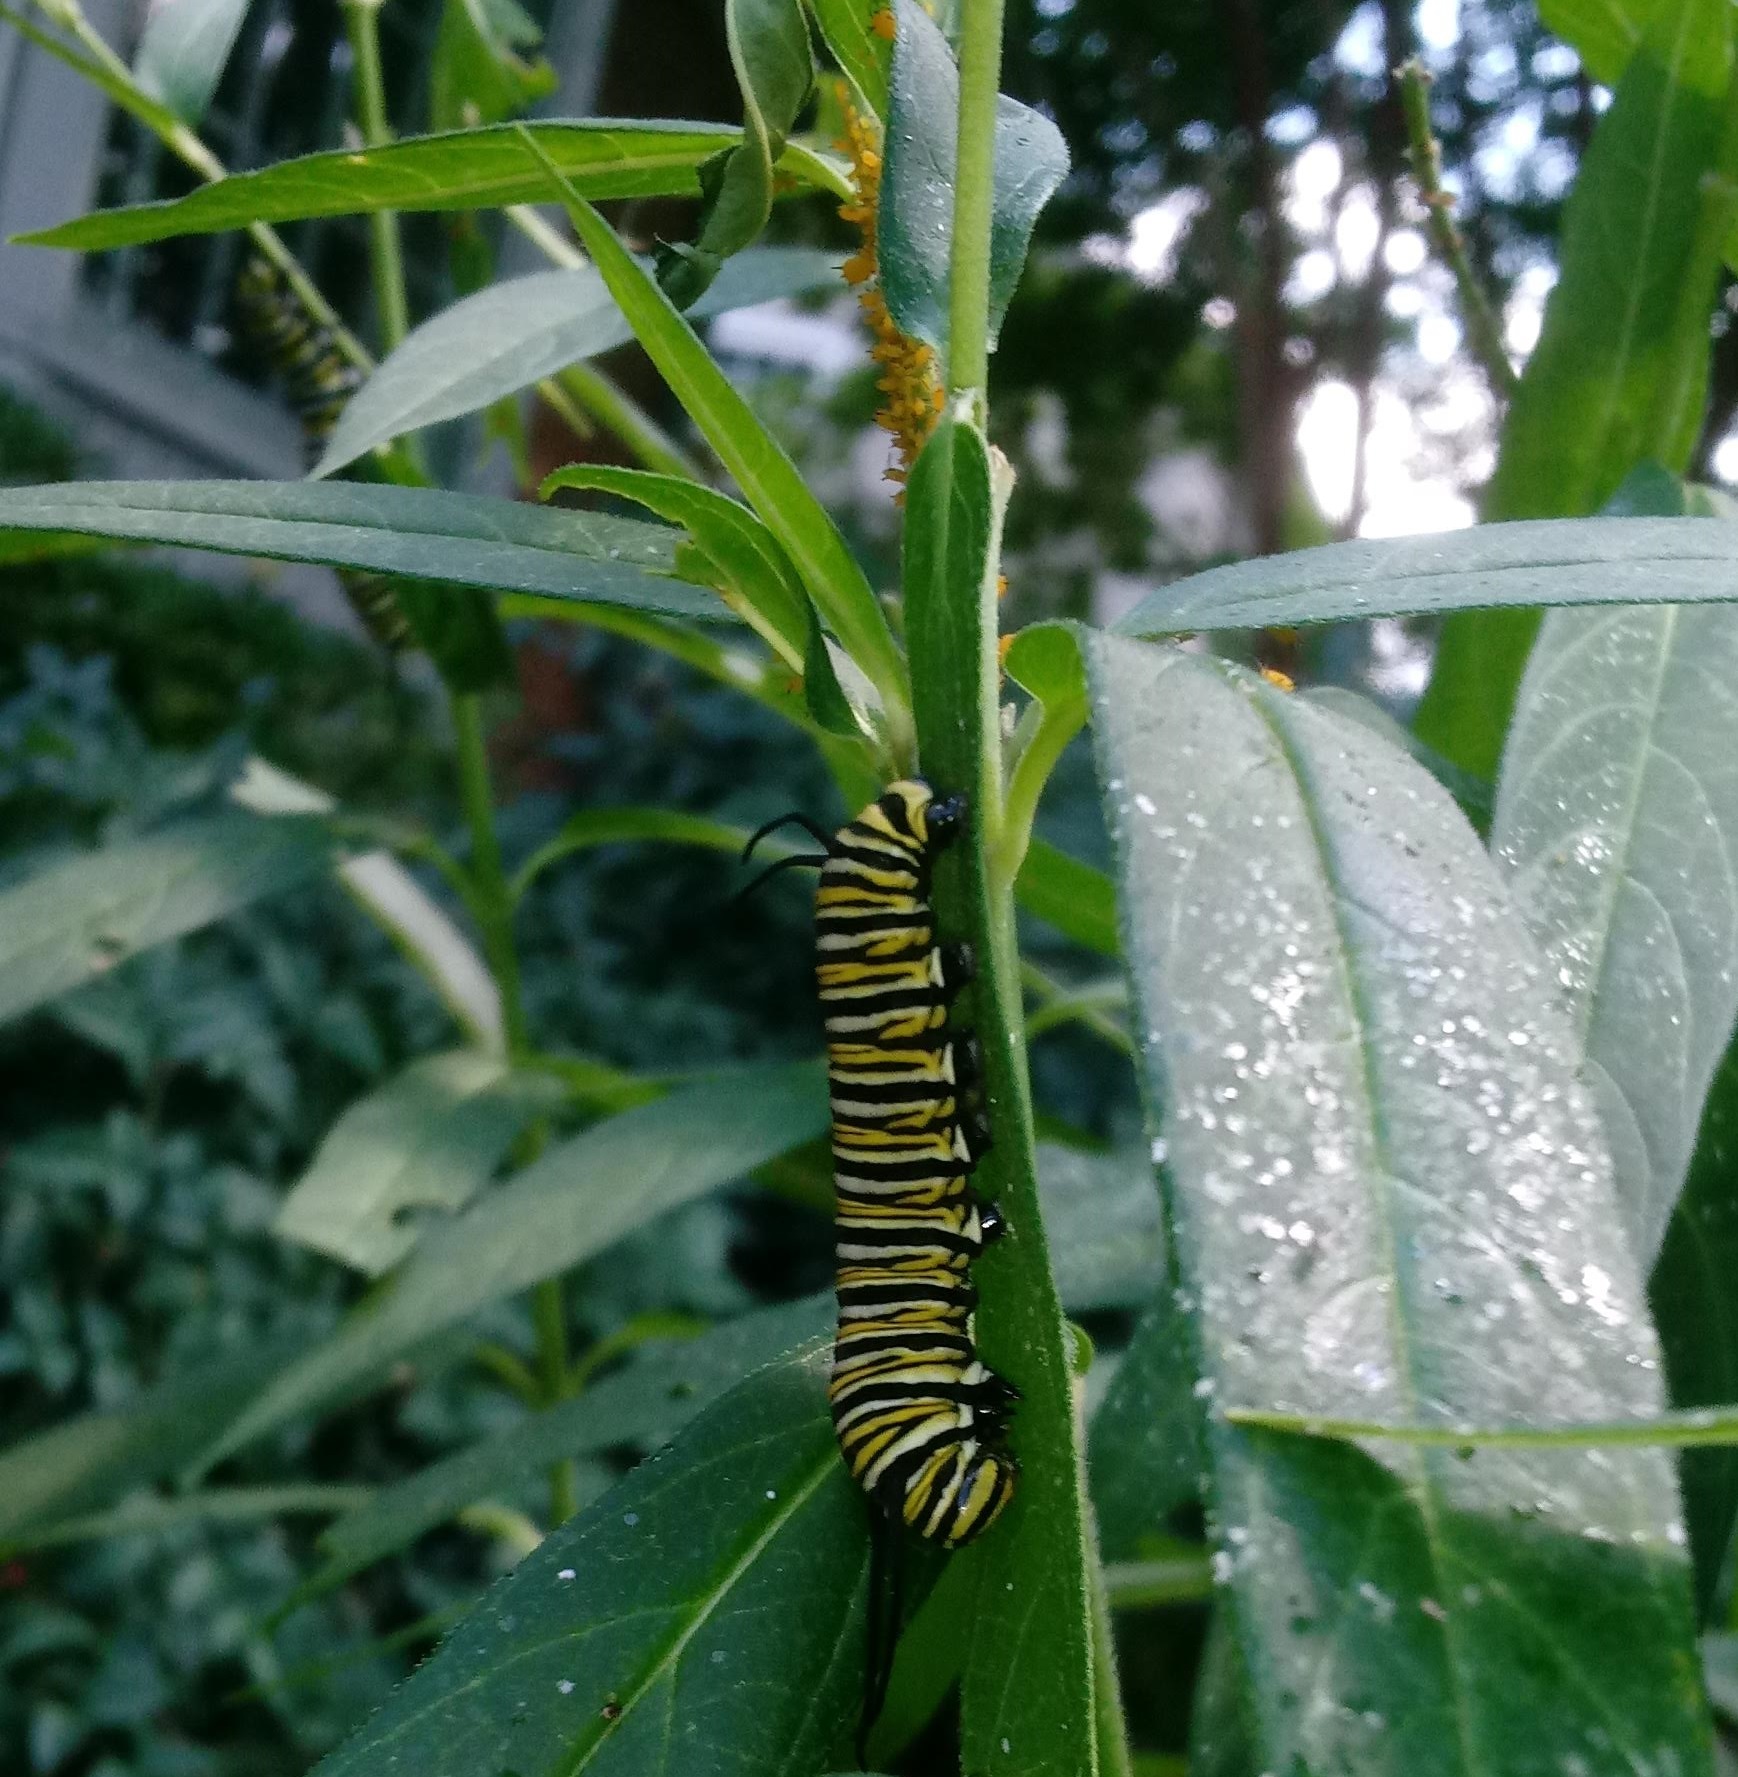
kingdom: Animalia
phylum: Arthropoda
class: Insecta
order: Lepidoptera
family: Nymphalidae
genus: Danaus
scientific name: Danaus plexippus
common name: Monarch
